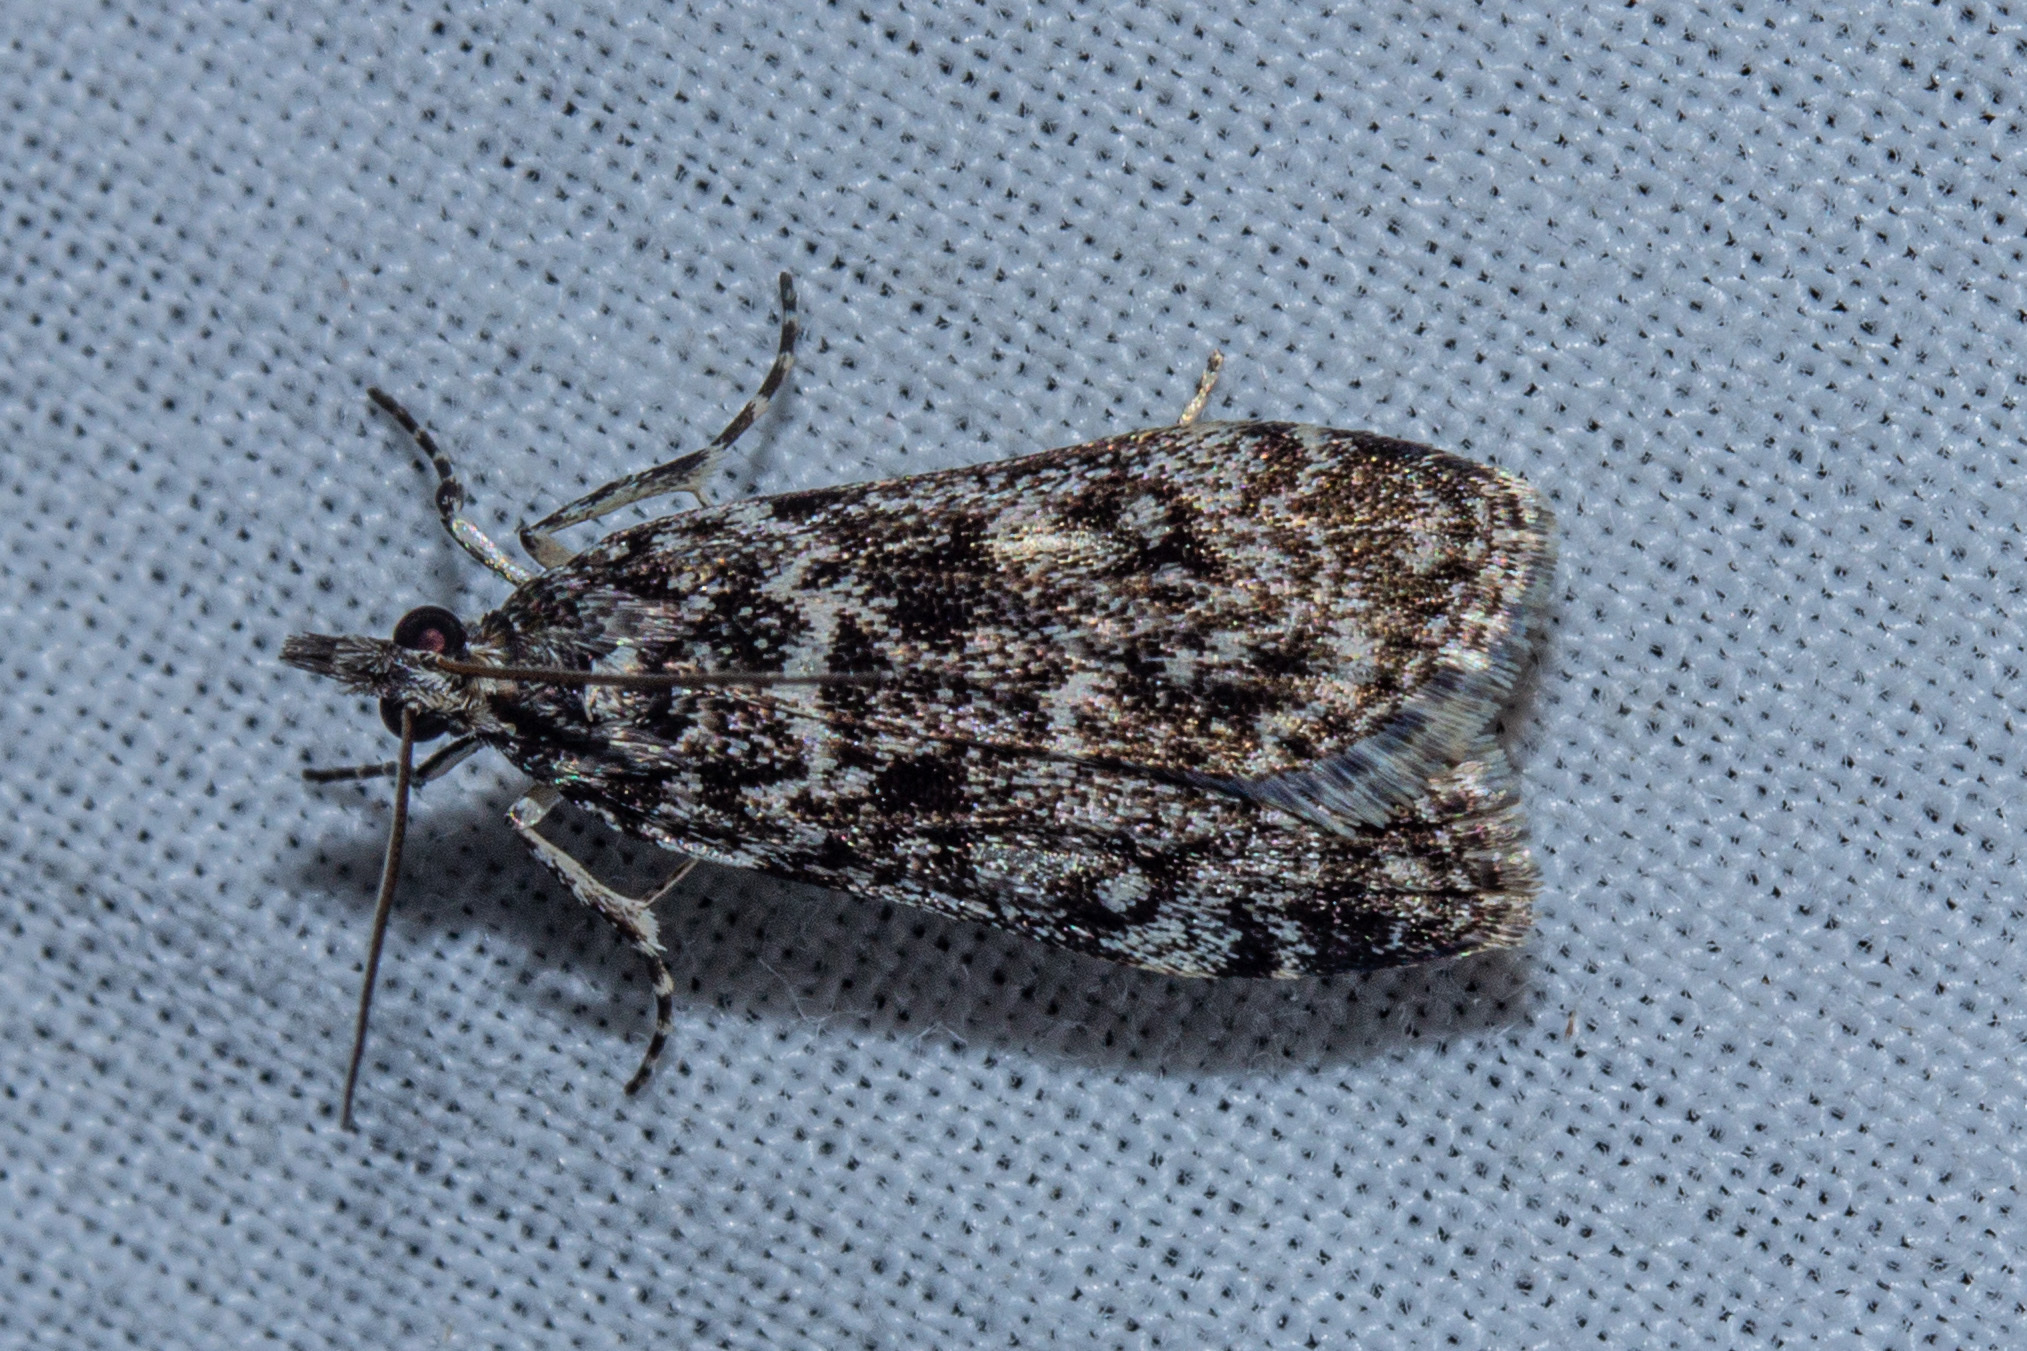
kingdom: Animalia
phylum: Arthropoda
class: Insecta
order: Lepidoptera
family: Crambidae
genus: Eudonia
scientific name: Eudonia philerga
